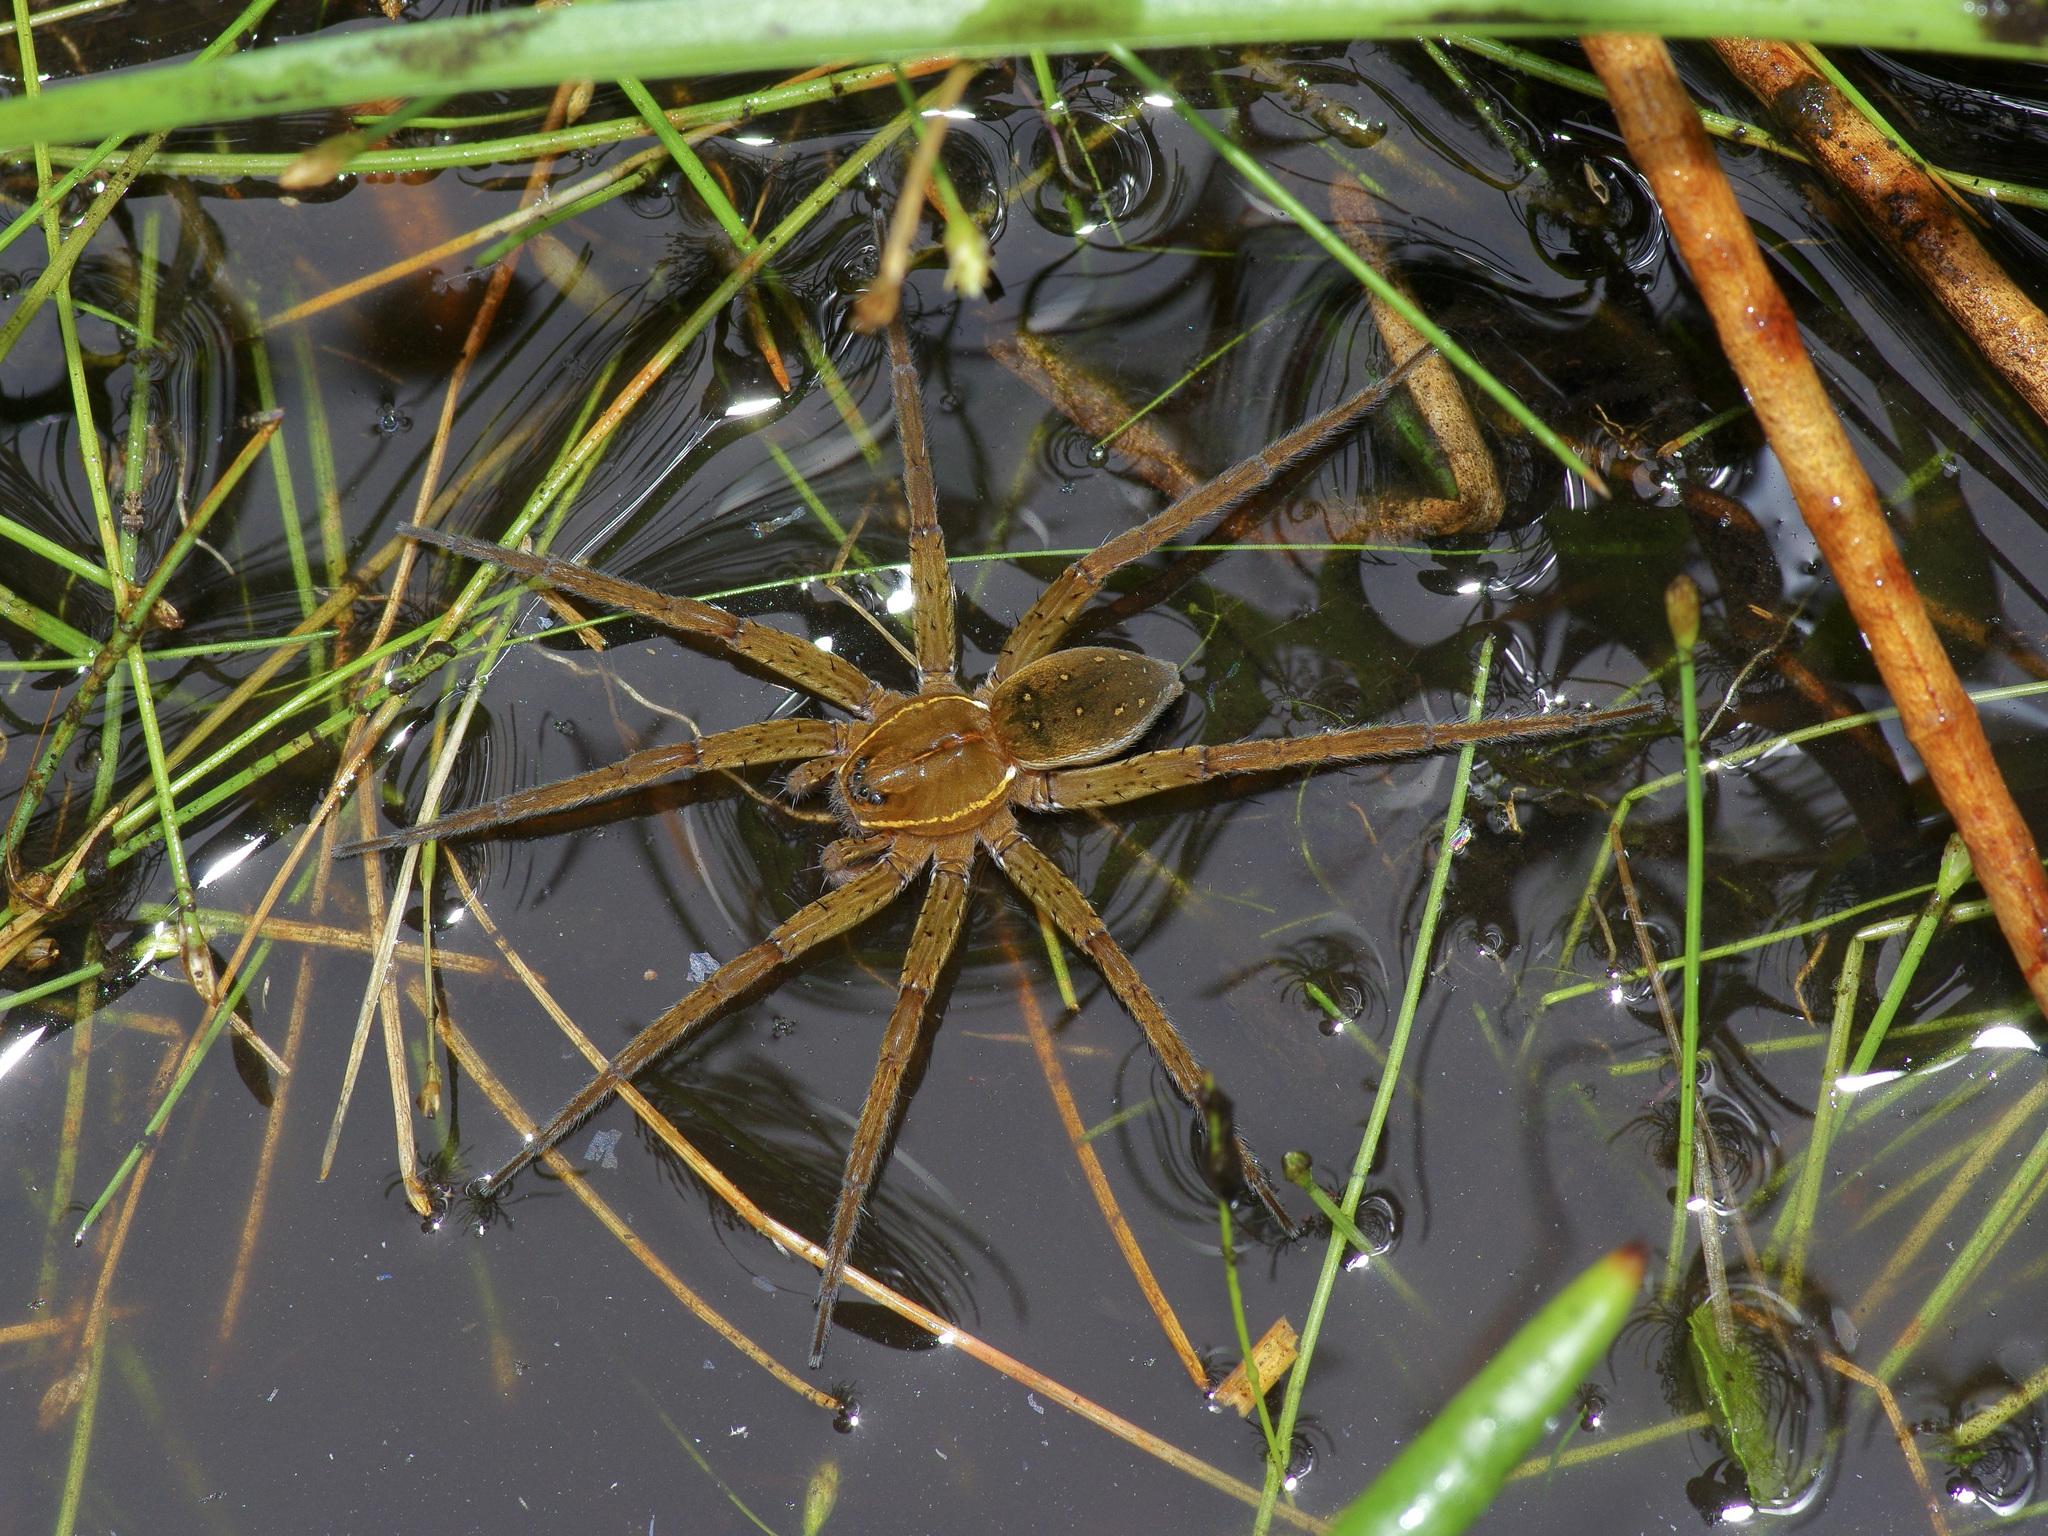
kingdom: Animalia
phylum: Arthropoda
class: Arachnida
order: Araneae
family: Pisauridae
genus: Dolomedes
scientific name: Dolomedes triton
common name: Six-spotted fishing spider
